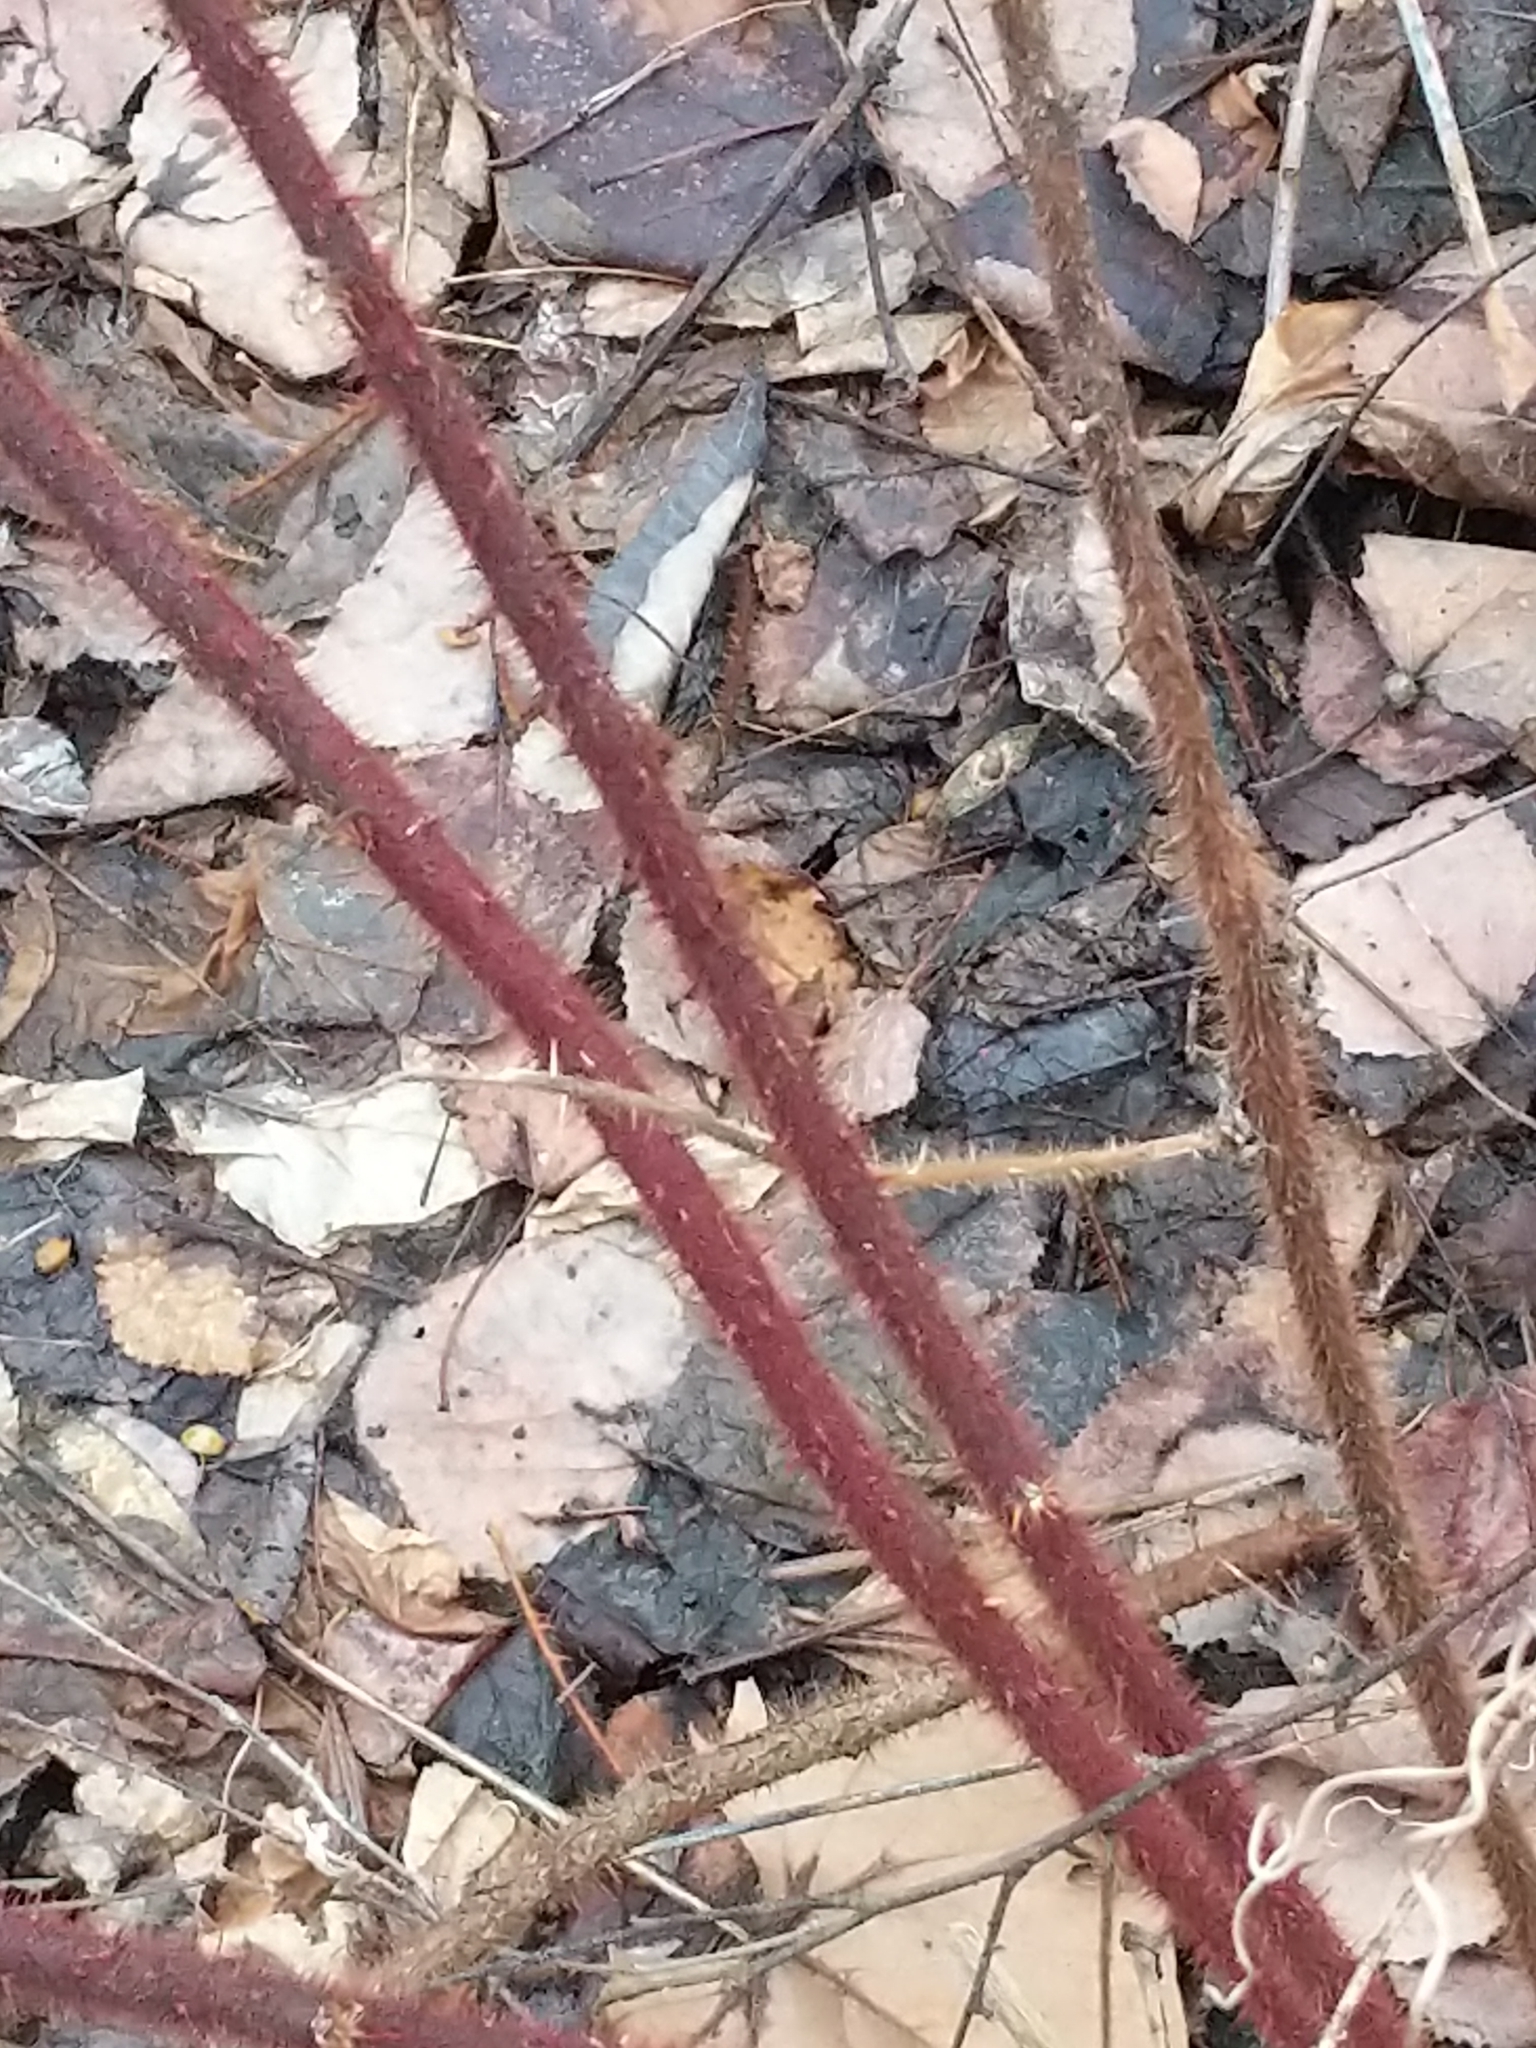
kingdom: Plantae
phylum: Tracheophyta
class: Magnoliopsida
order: Rosales
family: Rosaceae
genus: Rubus
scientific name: Rubus phoenicolasius
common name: Japanese wineberry
